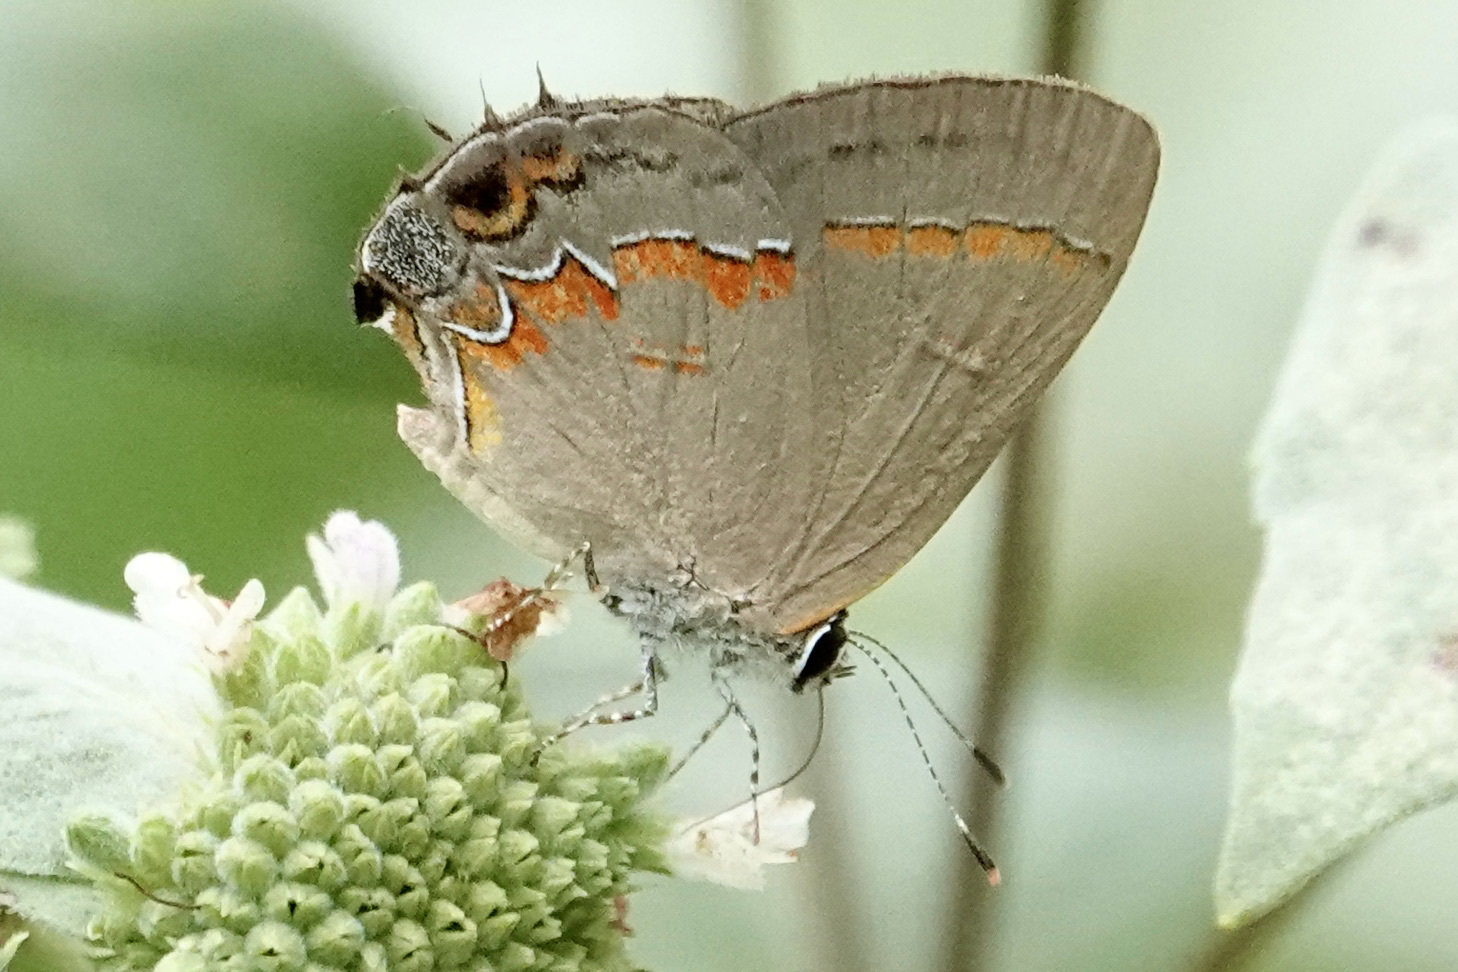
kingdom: Animalia
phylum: Arthropoda
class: Insecta
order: Lepidoptera
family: Lycaenidae
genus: Calycopis
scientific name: Calycopis cecrops
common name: Red-banded hairstreak
